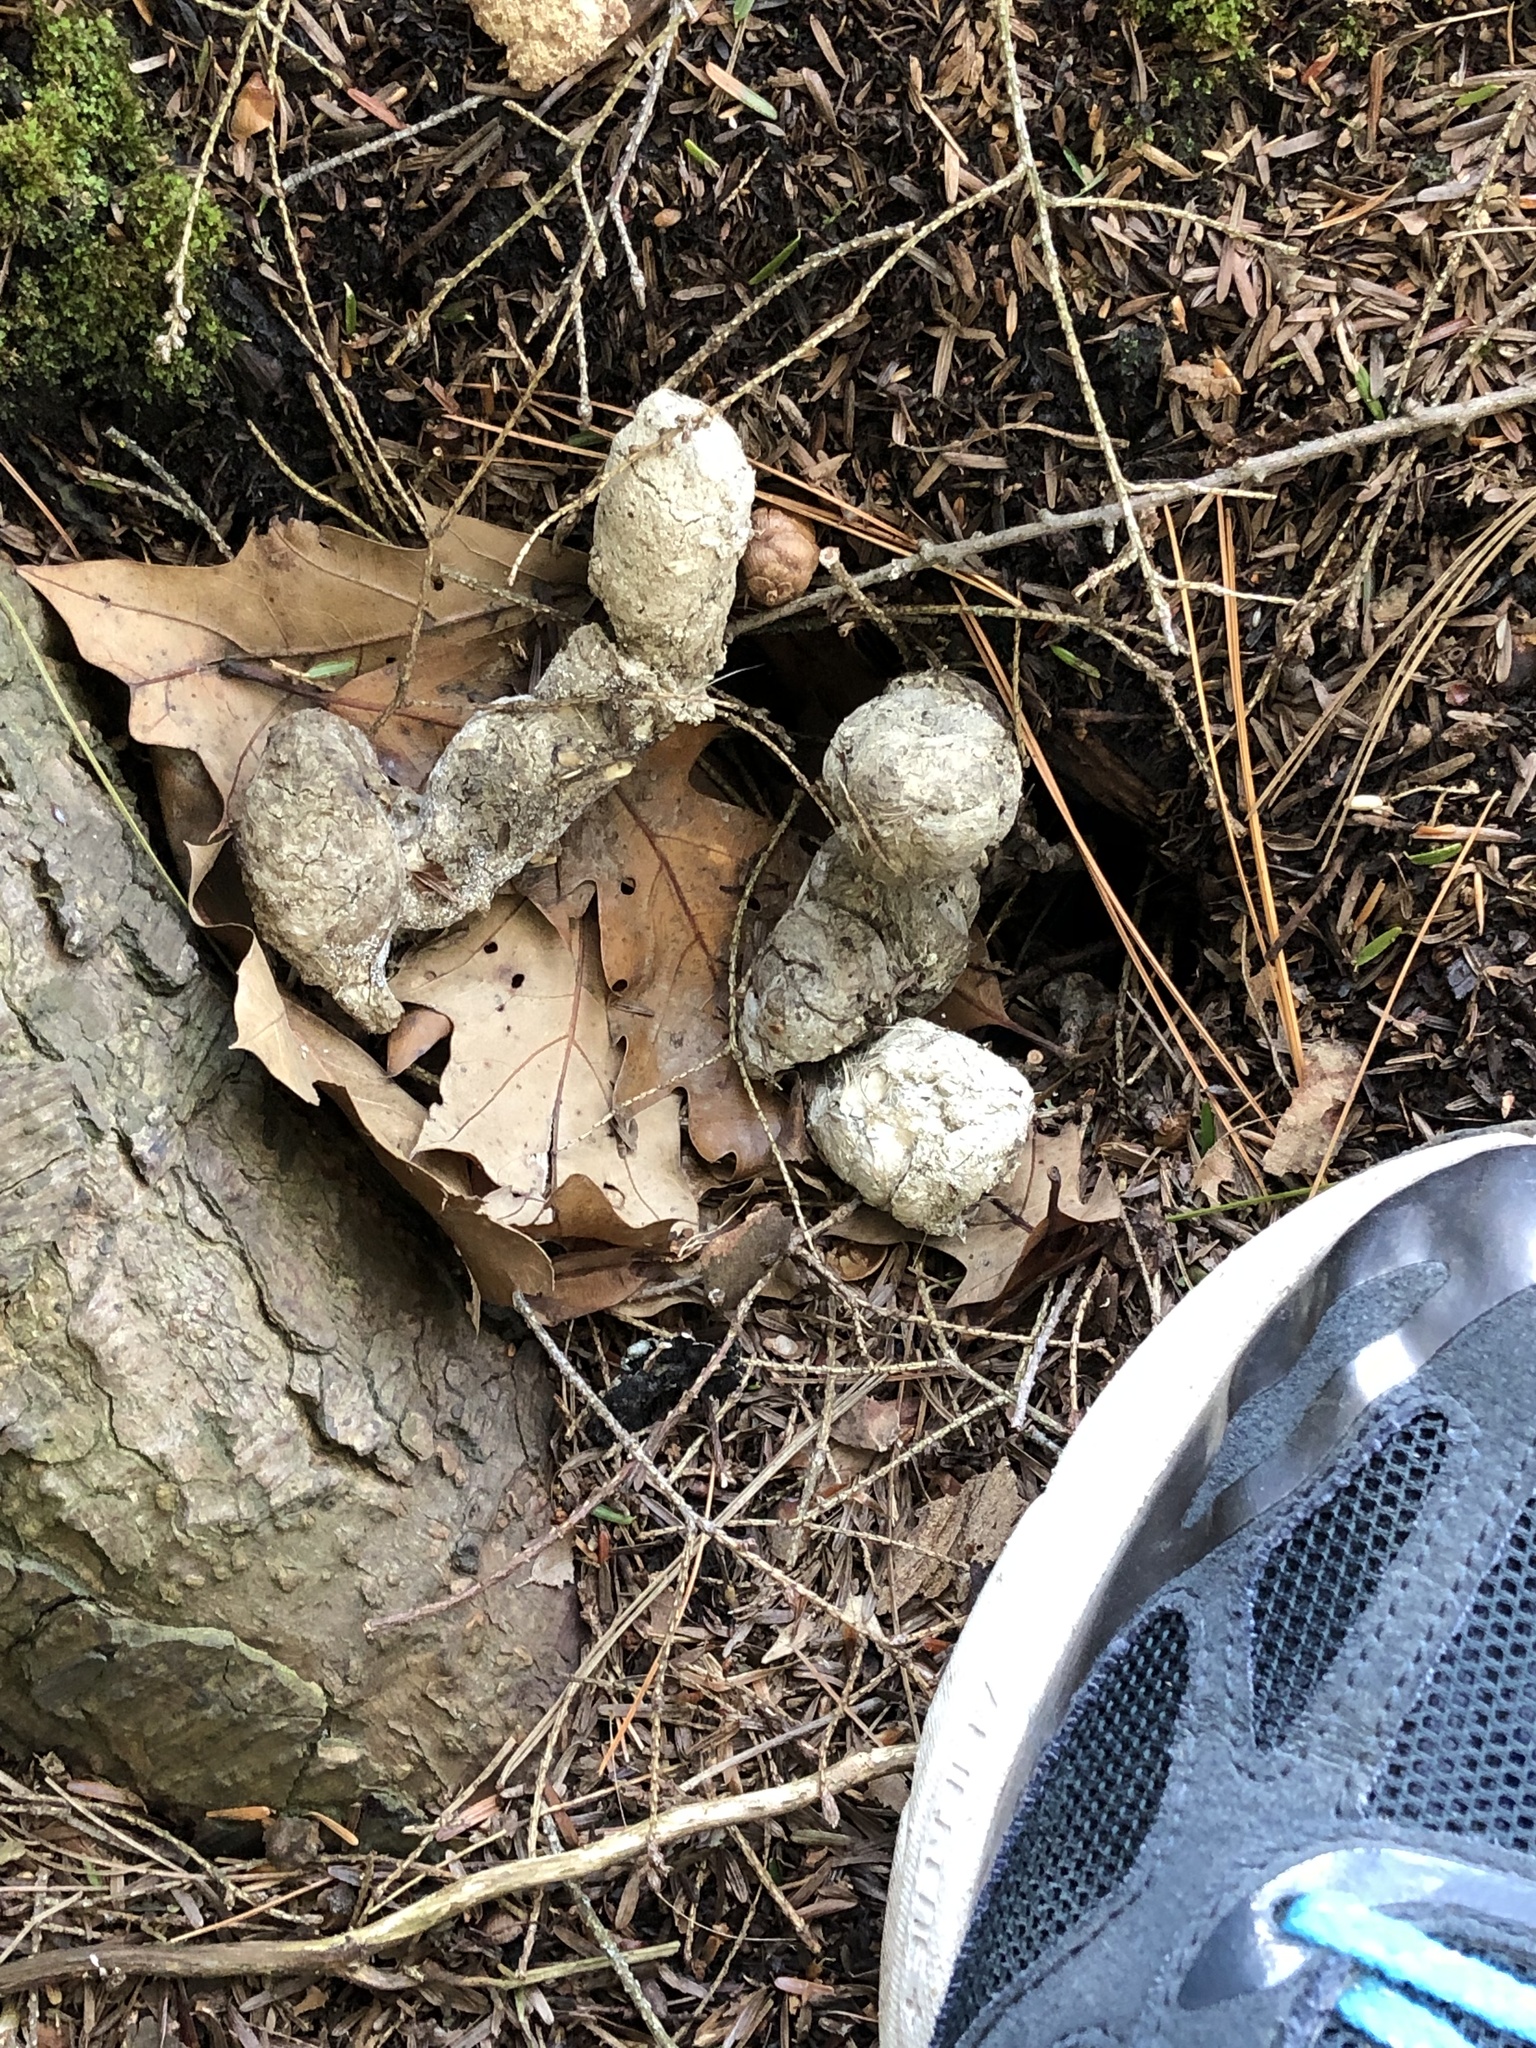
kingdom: Animalia
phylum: Chordata
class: Mammalia
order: Carnivora
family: Canidae
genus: Canis
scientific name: Canis latrans
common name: Coyote
